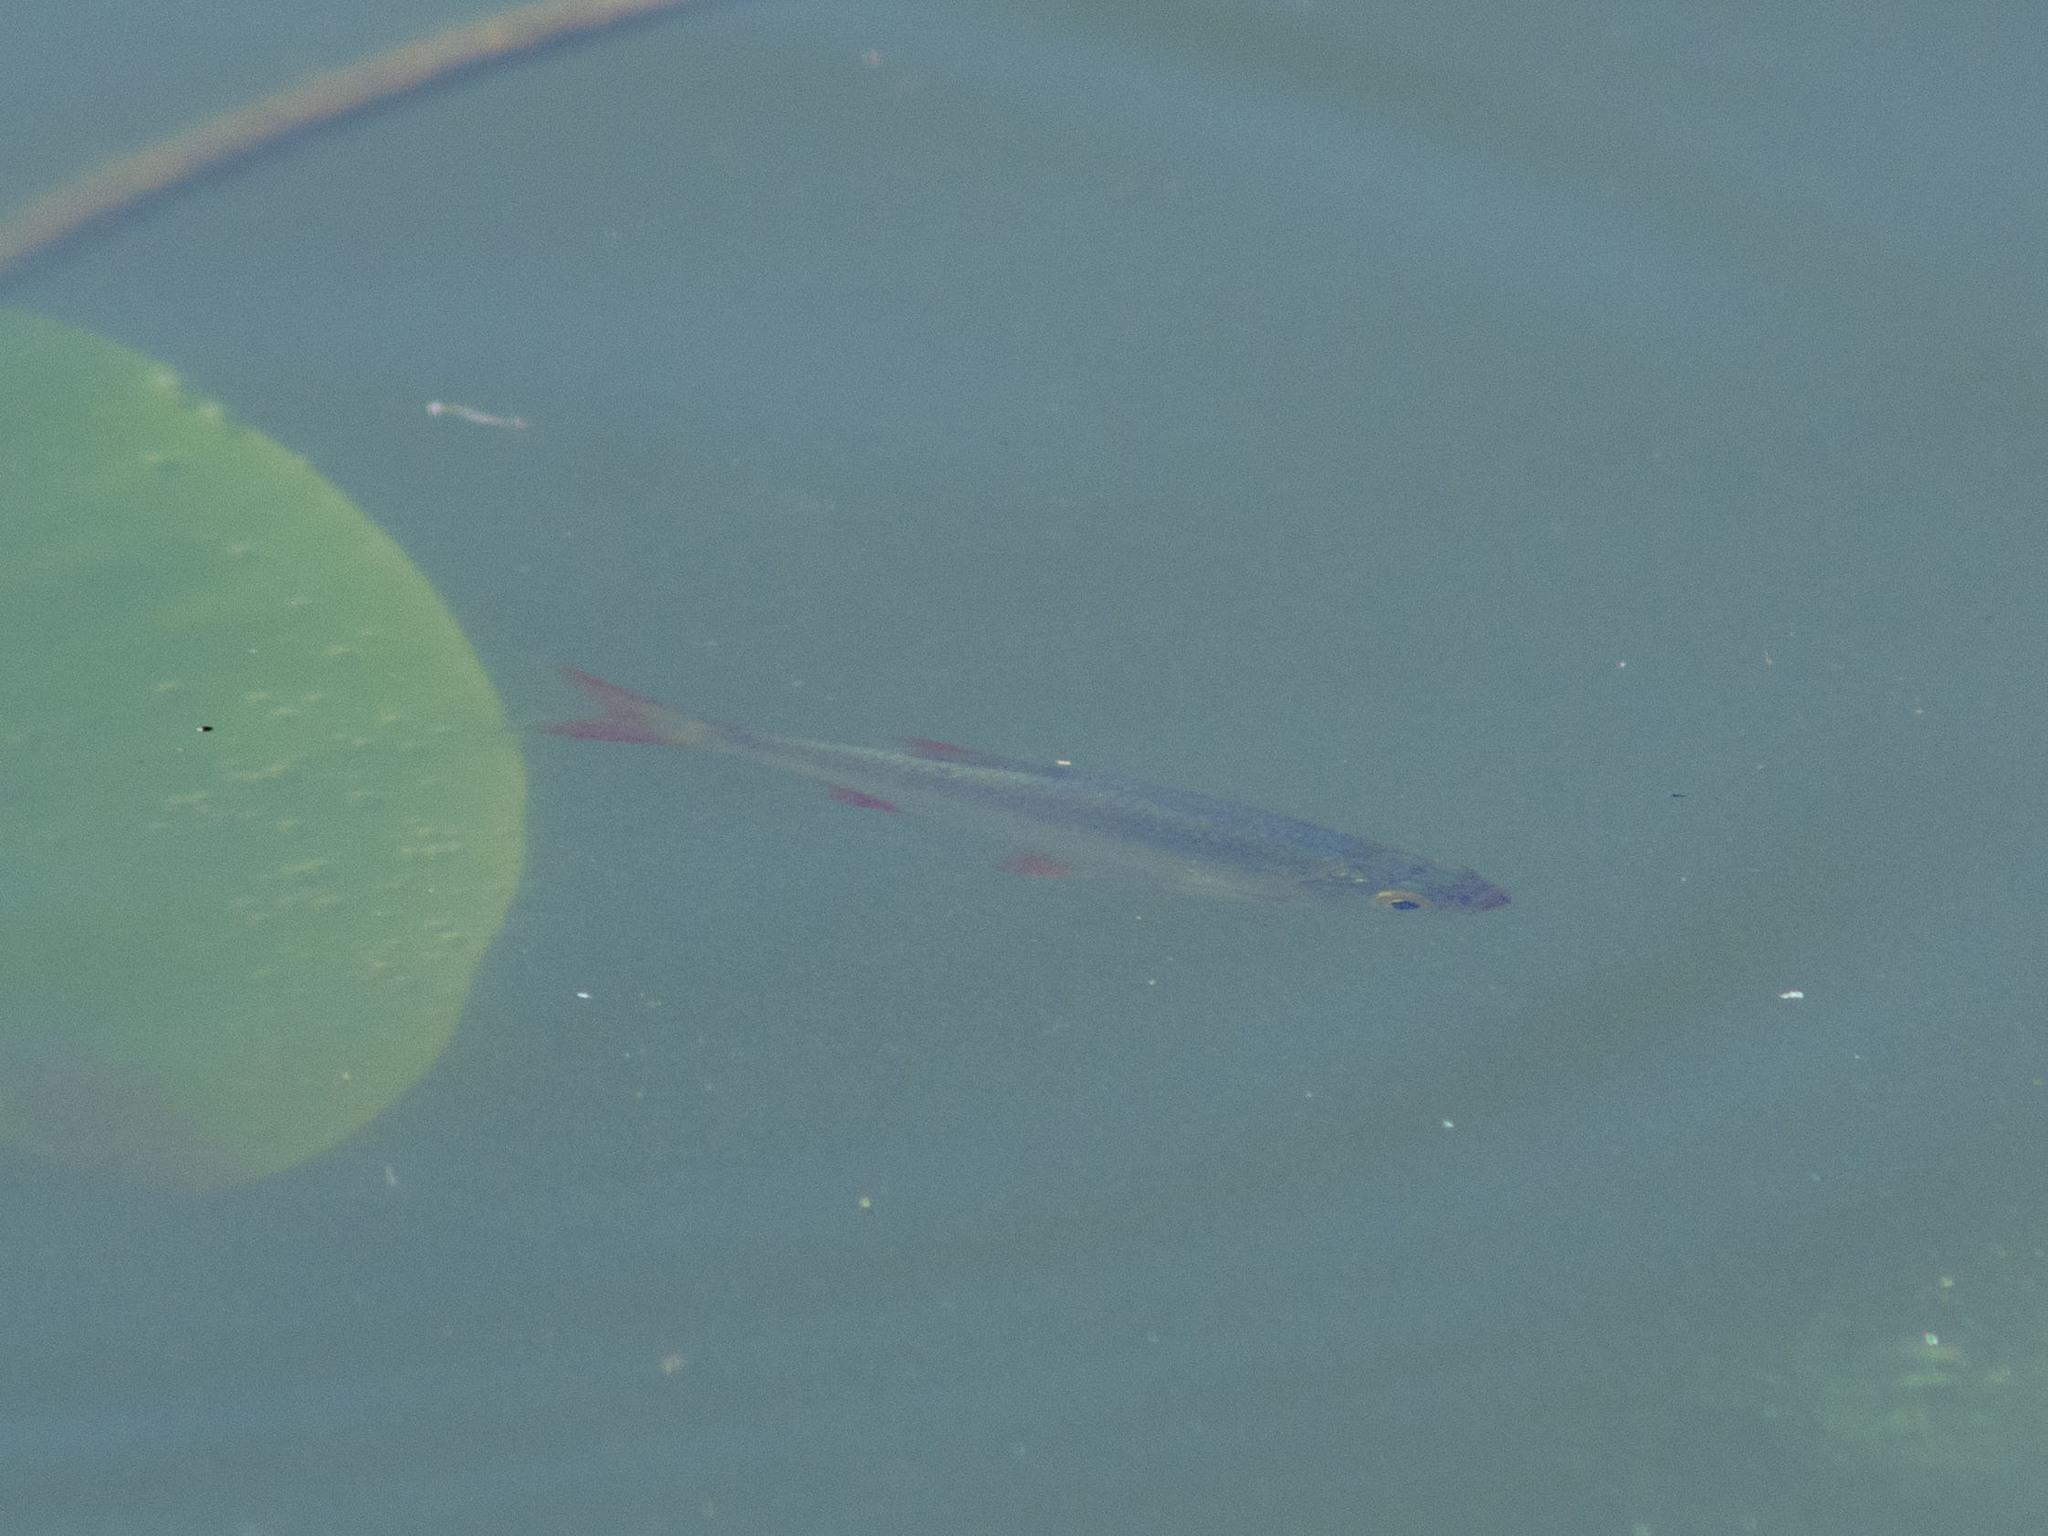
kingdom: Animalia
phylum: Chordata
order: Cypriniformes
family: Cyprinidae
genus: Scardinius
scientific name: Scardinius erythrophthalmus
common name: Rudd
